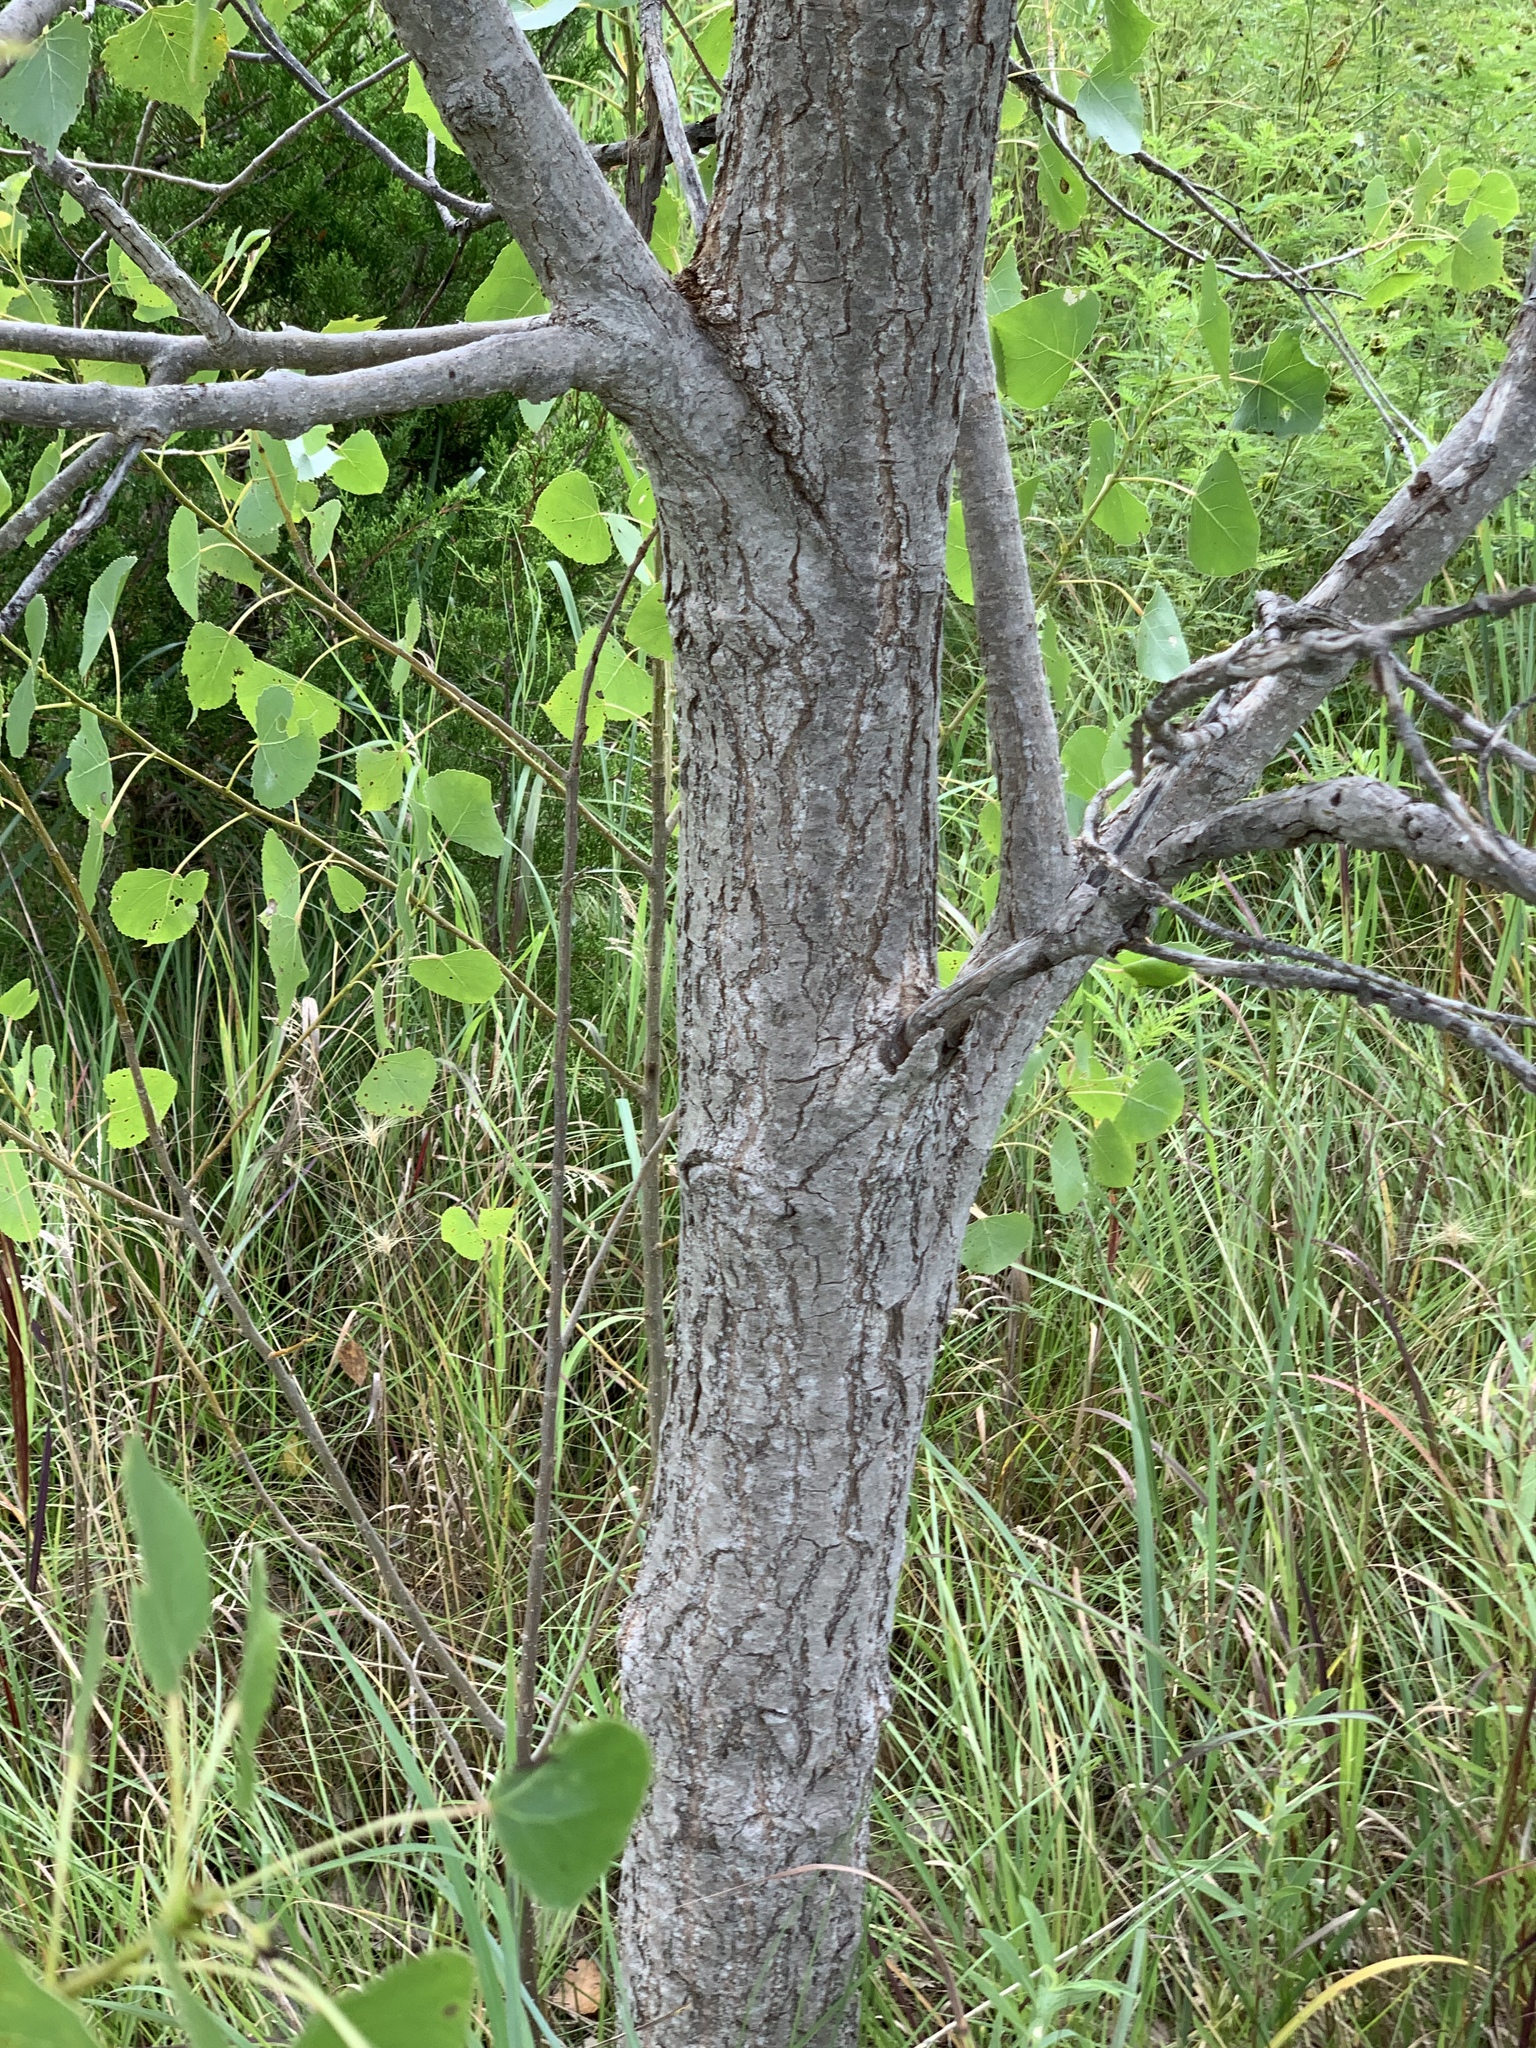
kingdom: Plantae
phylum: Tracheophyta
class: Magnoliopsida
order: Malpighiales
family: Salicaceae
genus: Populus
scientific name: Populus deltoides
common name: Eastern cottonwood
